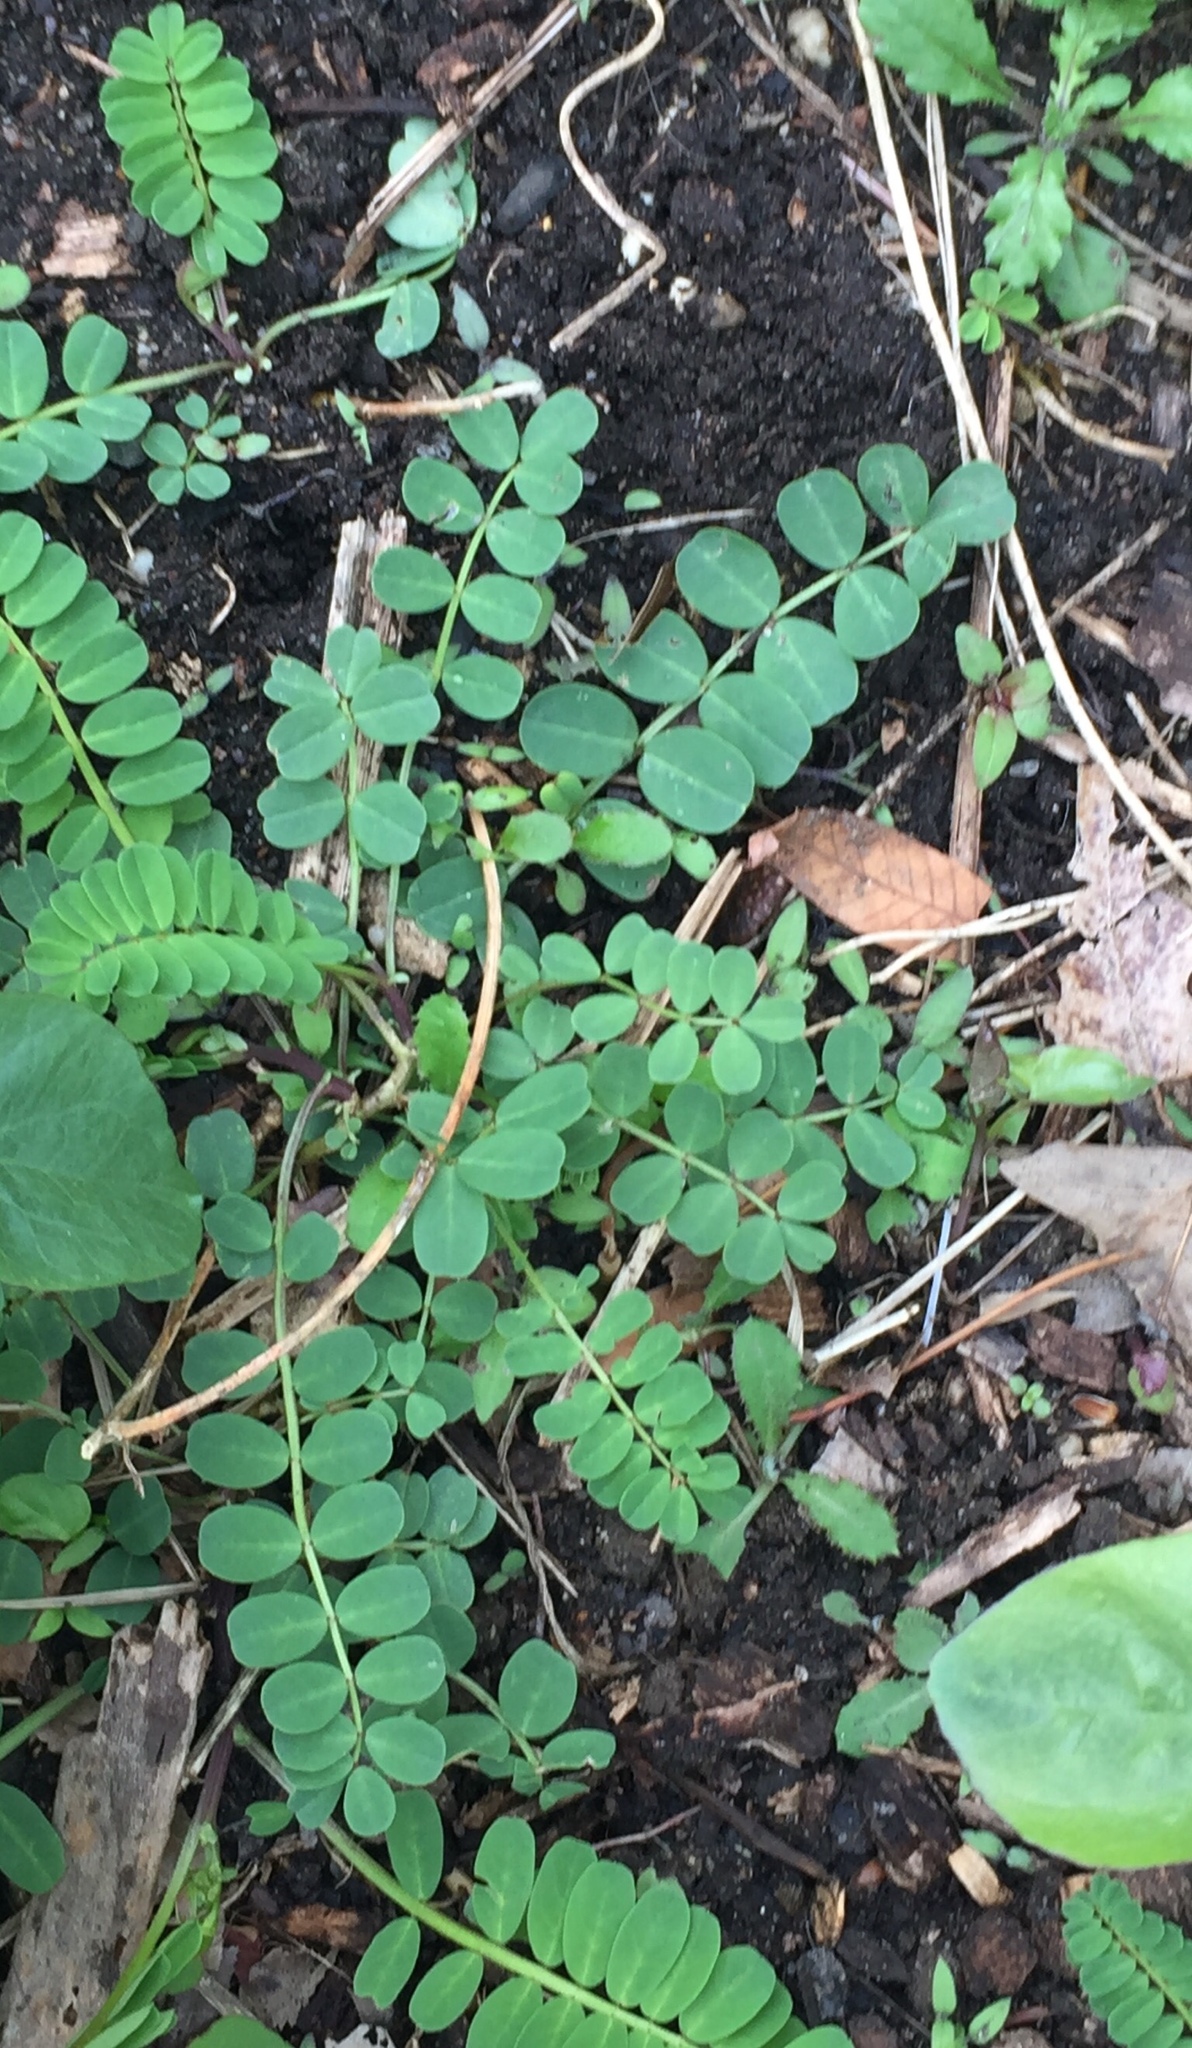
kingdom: Plantae
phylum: Tracheophyta
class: Magnoliopsida
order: Fabales
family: Fabaceae
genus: Coronilla
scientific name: Coronilla varia
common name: Crownvetch
